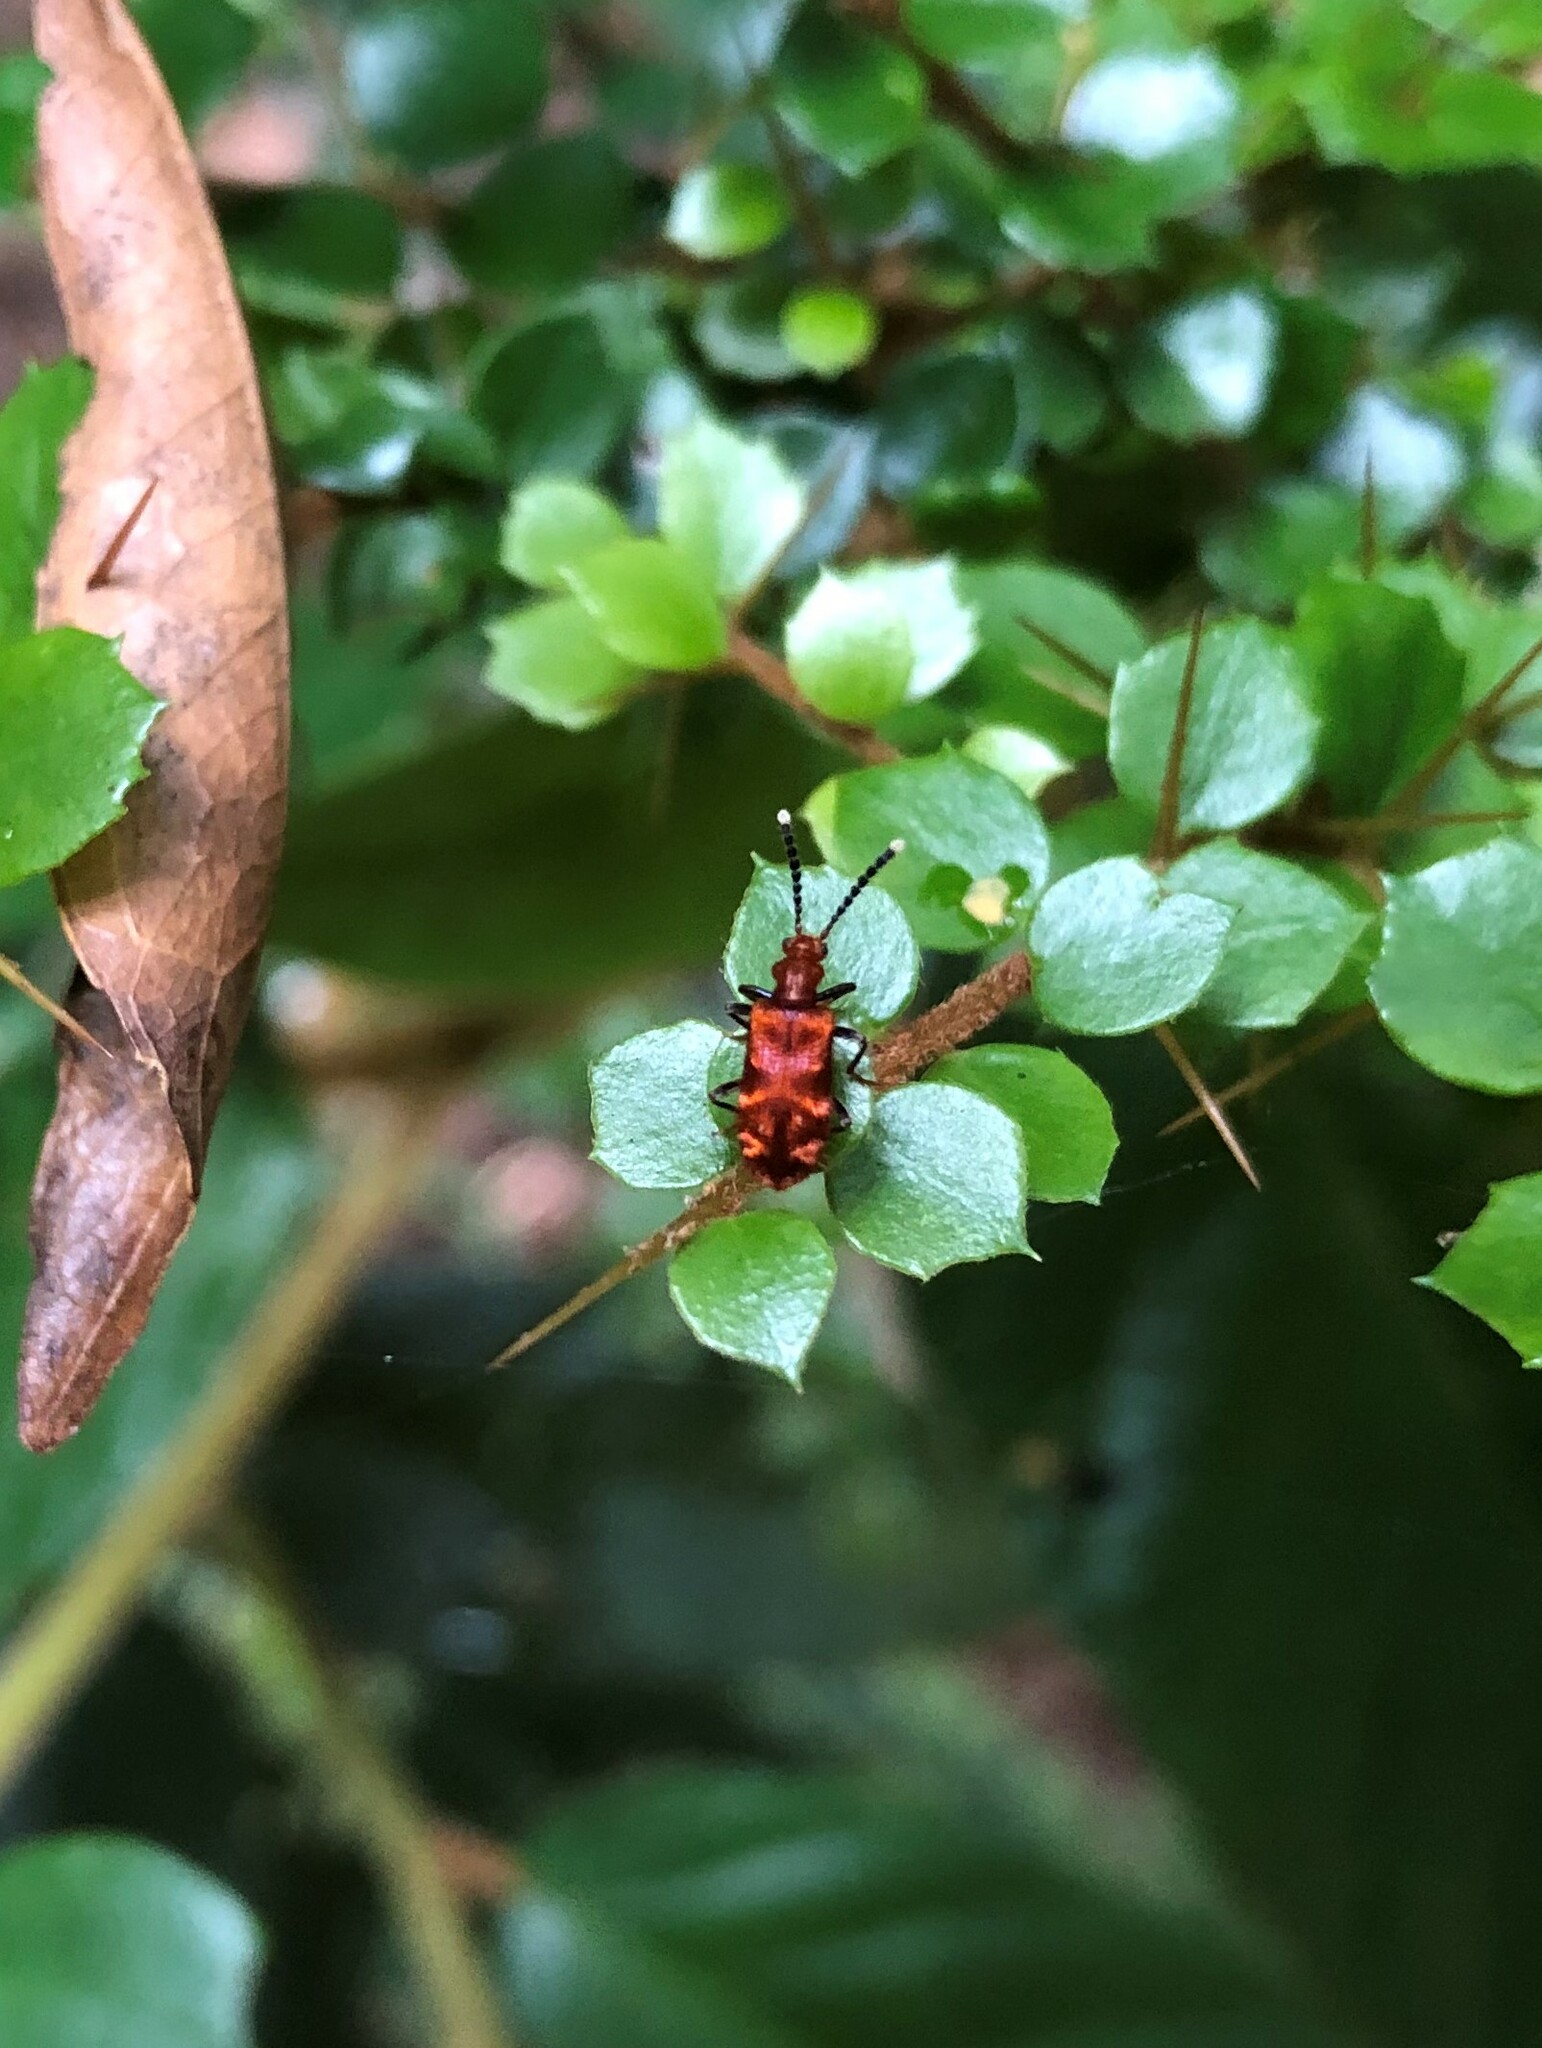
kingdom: Animalia
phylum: Arthropoda
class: Insecta
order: Coleoptera
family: Anthicidae
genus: Lemodes
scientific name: Lemodes
